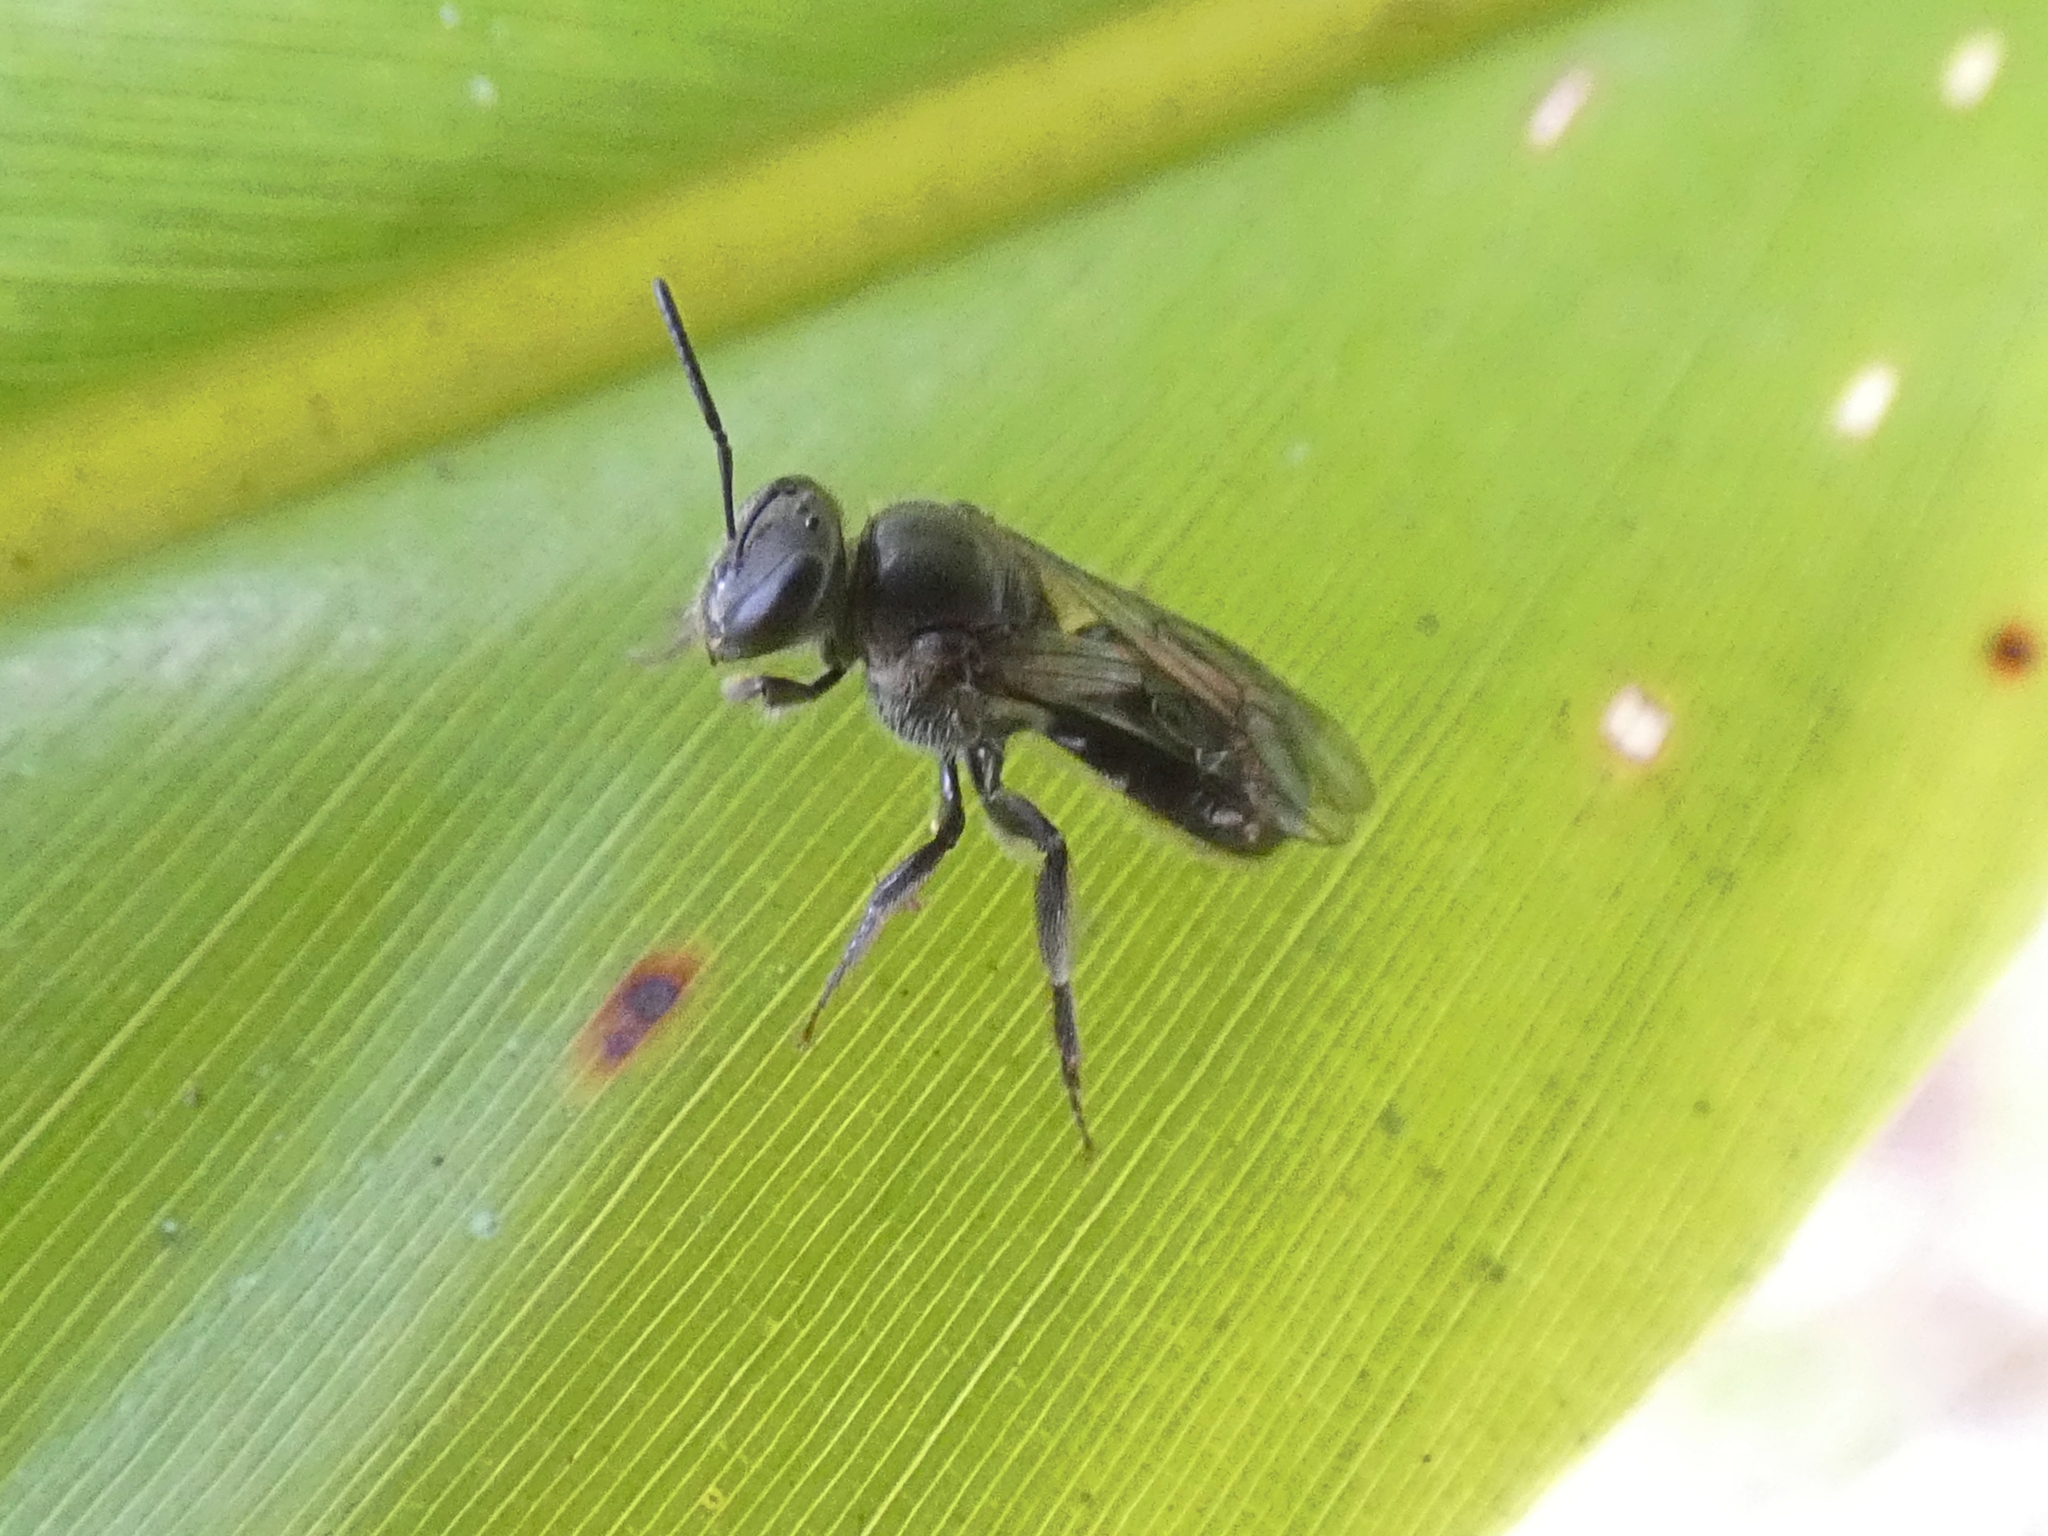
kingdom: Animalia
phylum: Arthropoda
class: Insecta
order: Hymenoptera
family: Apidae
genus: Ctenoplectra
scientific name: Ctenoplectra australica
